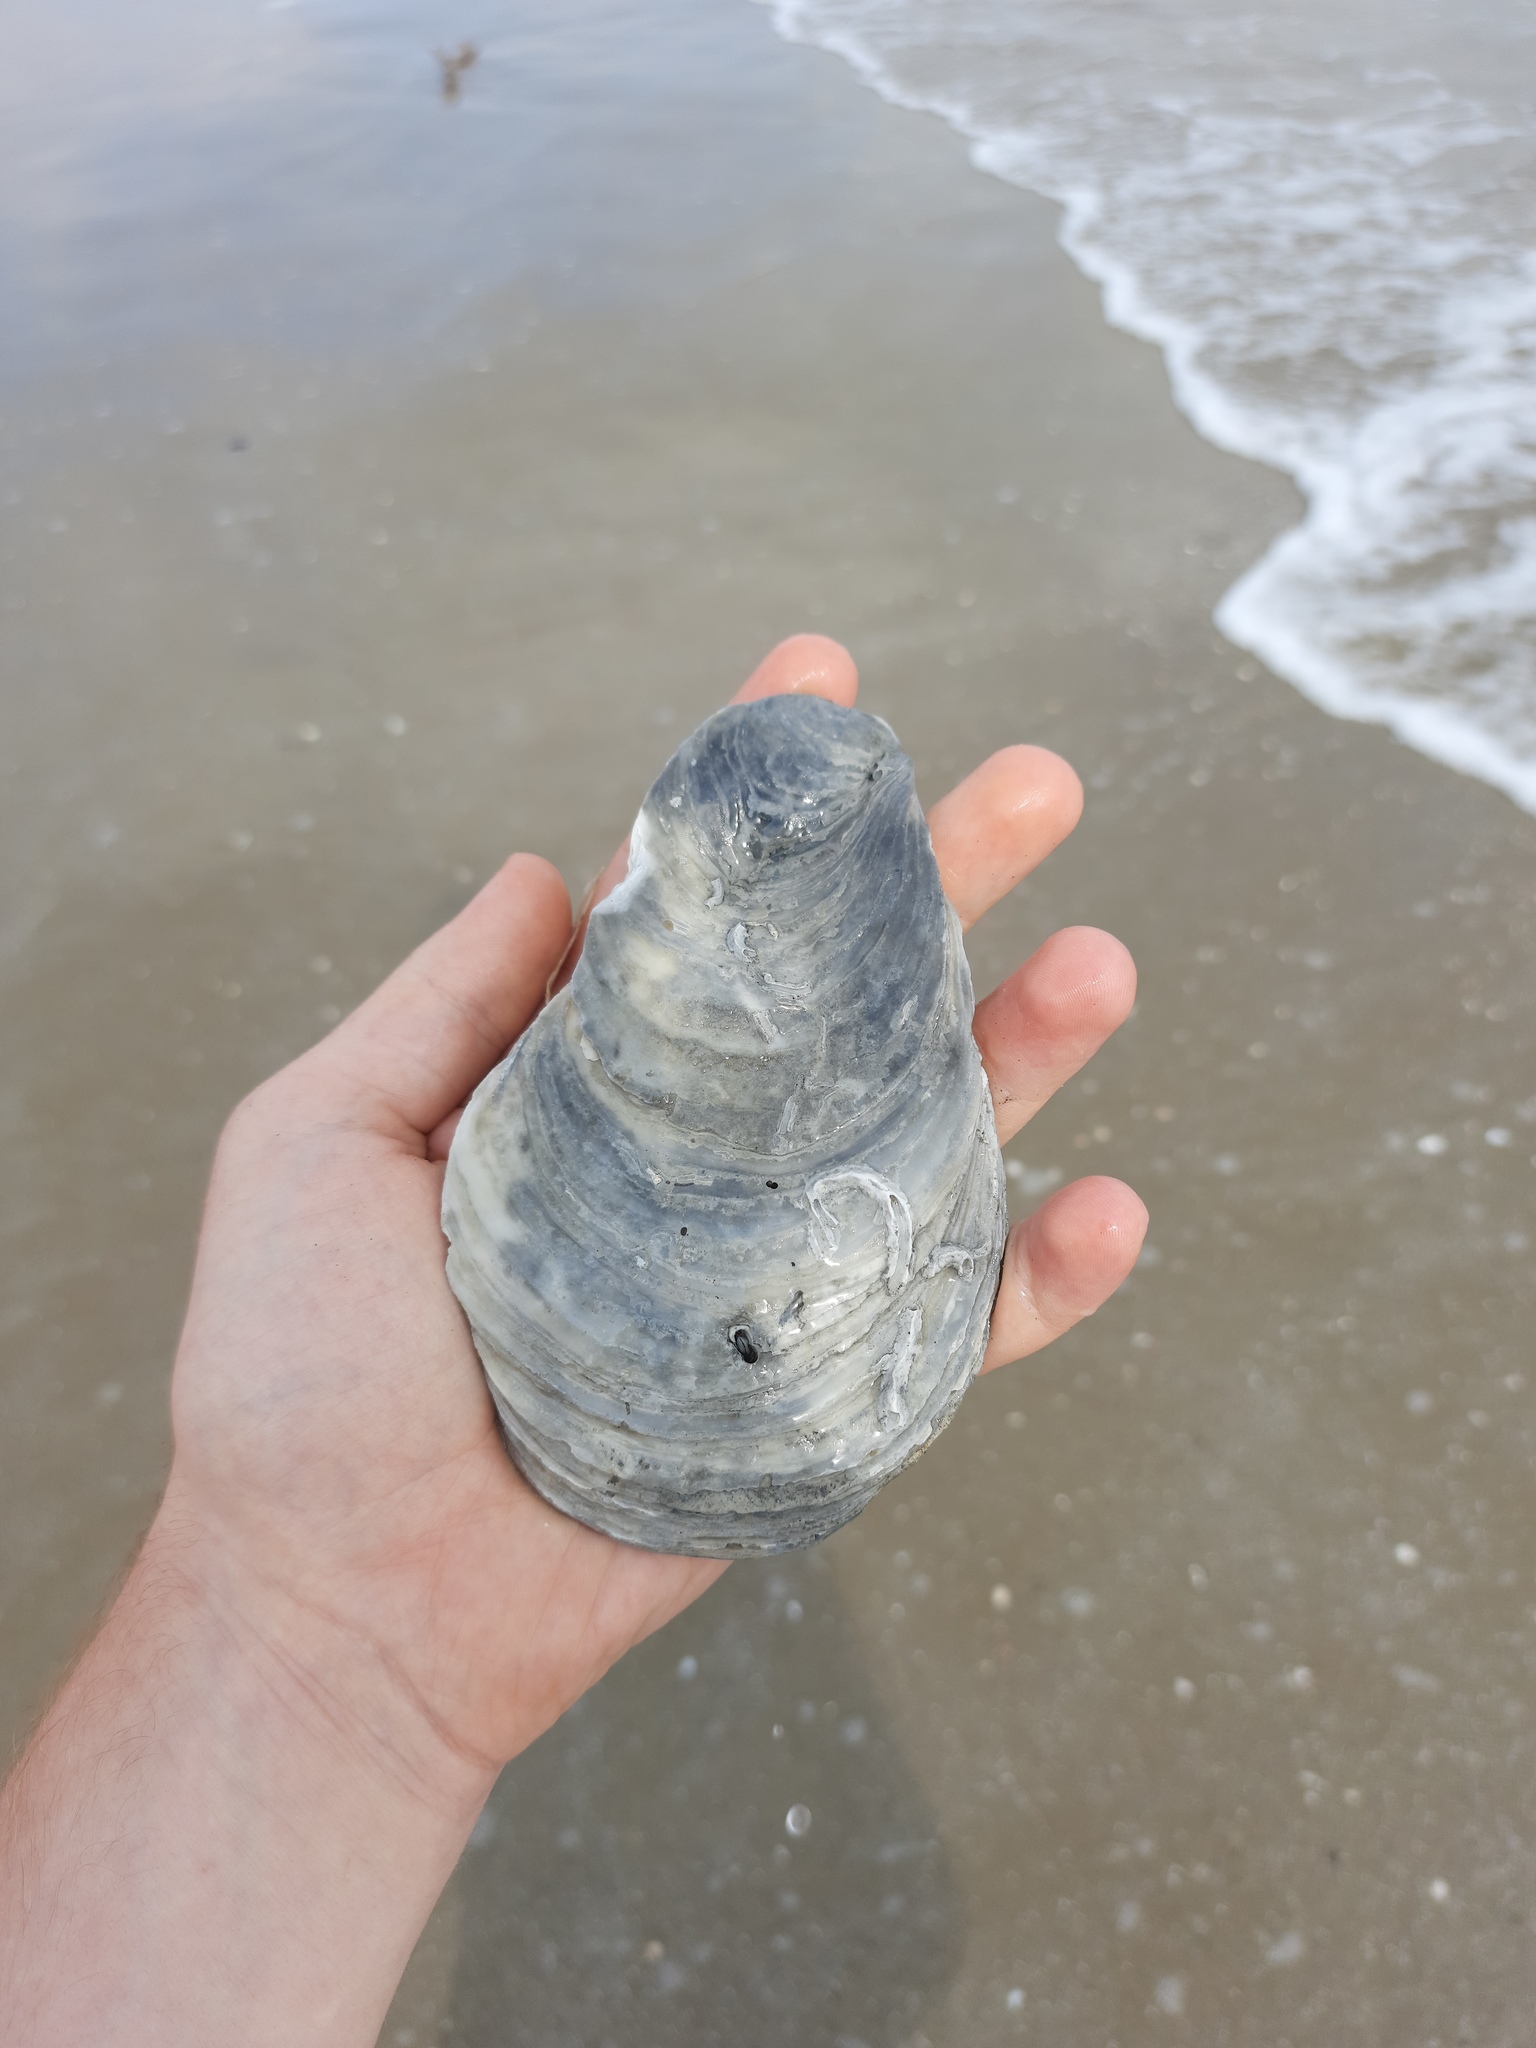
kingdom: Animalia
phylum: Mollusca
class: Bivalvia
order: Ostreida
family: Ostreidae
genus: Magallana
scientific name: Magallana gigas
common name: Pacific oyster
